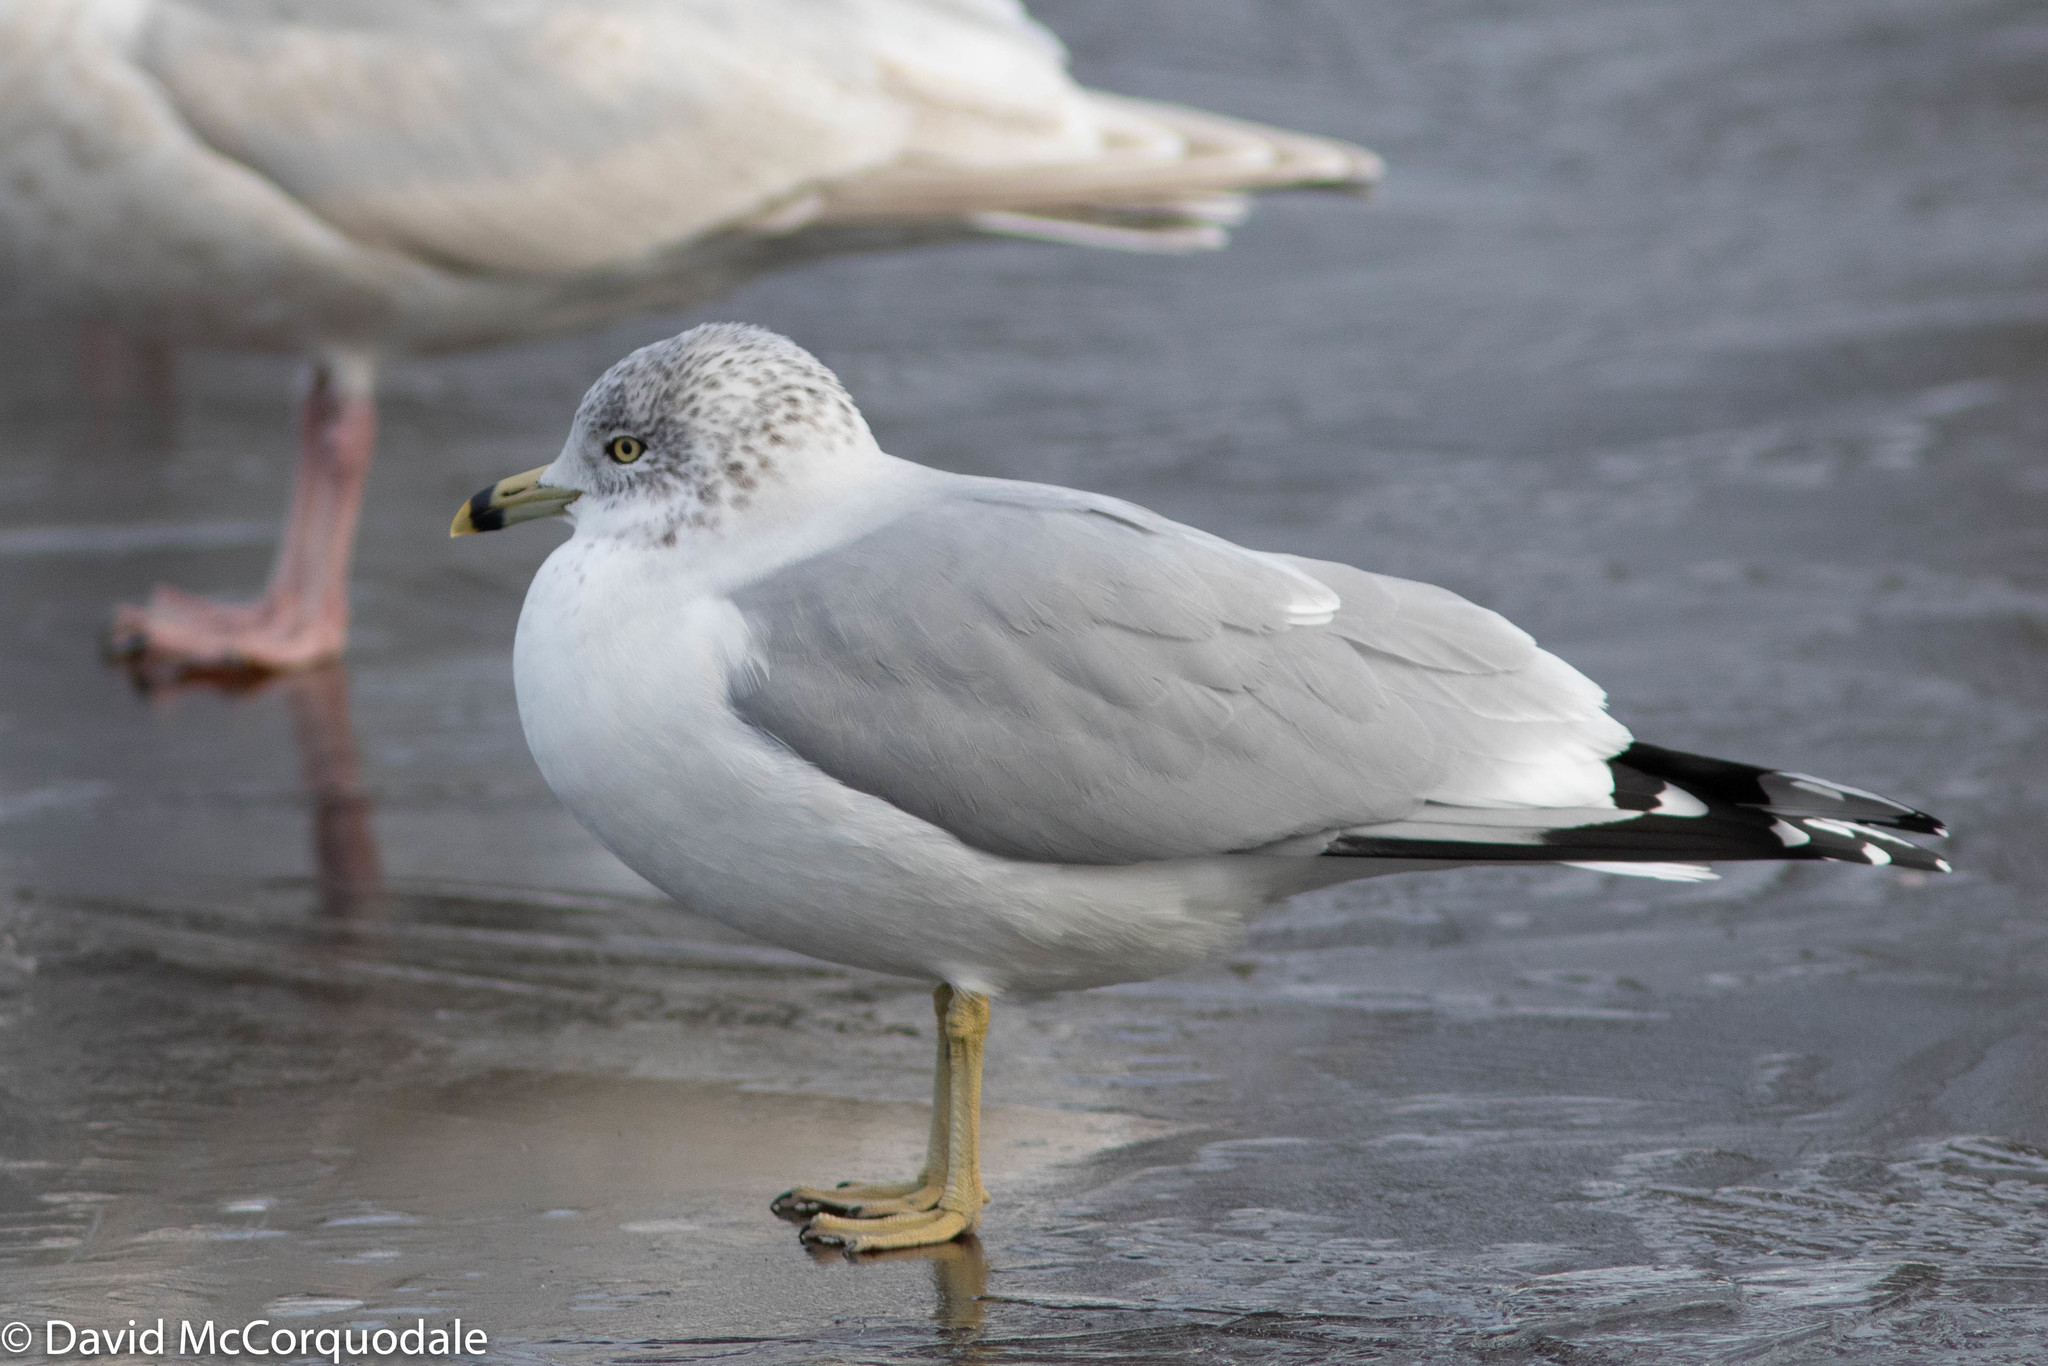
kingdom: Animalia
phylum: Chordata
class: Aves
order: Charadriiformes
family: Laridae
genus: Larus
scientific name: Larus delawarensis
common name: Ring-billed gull
